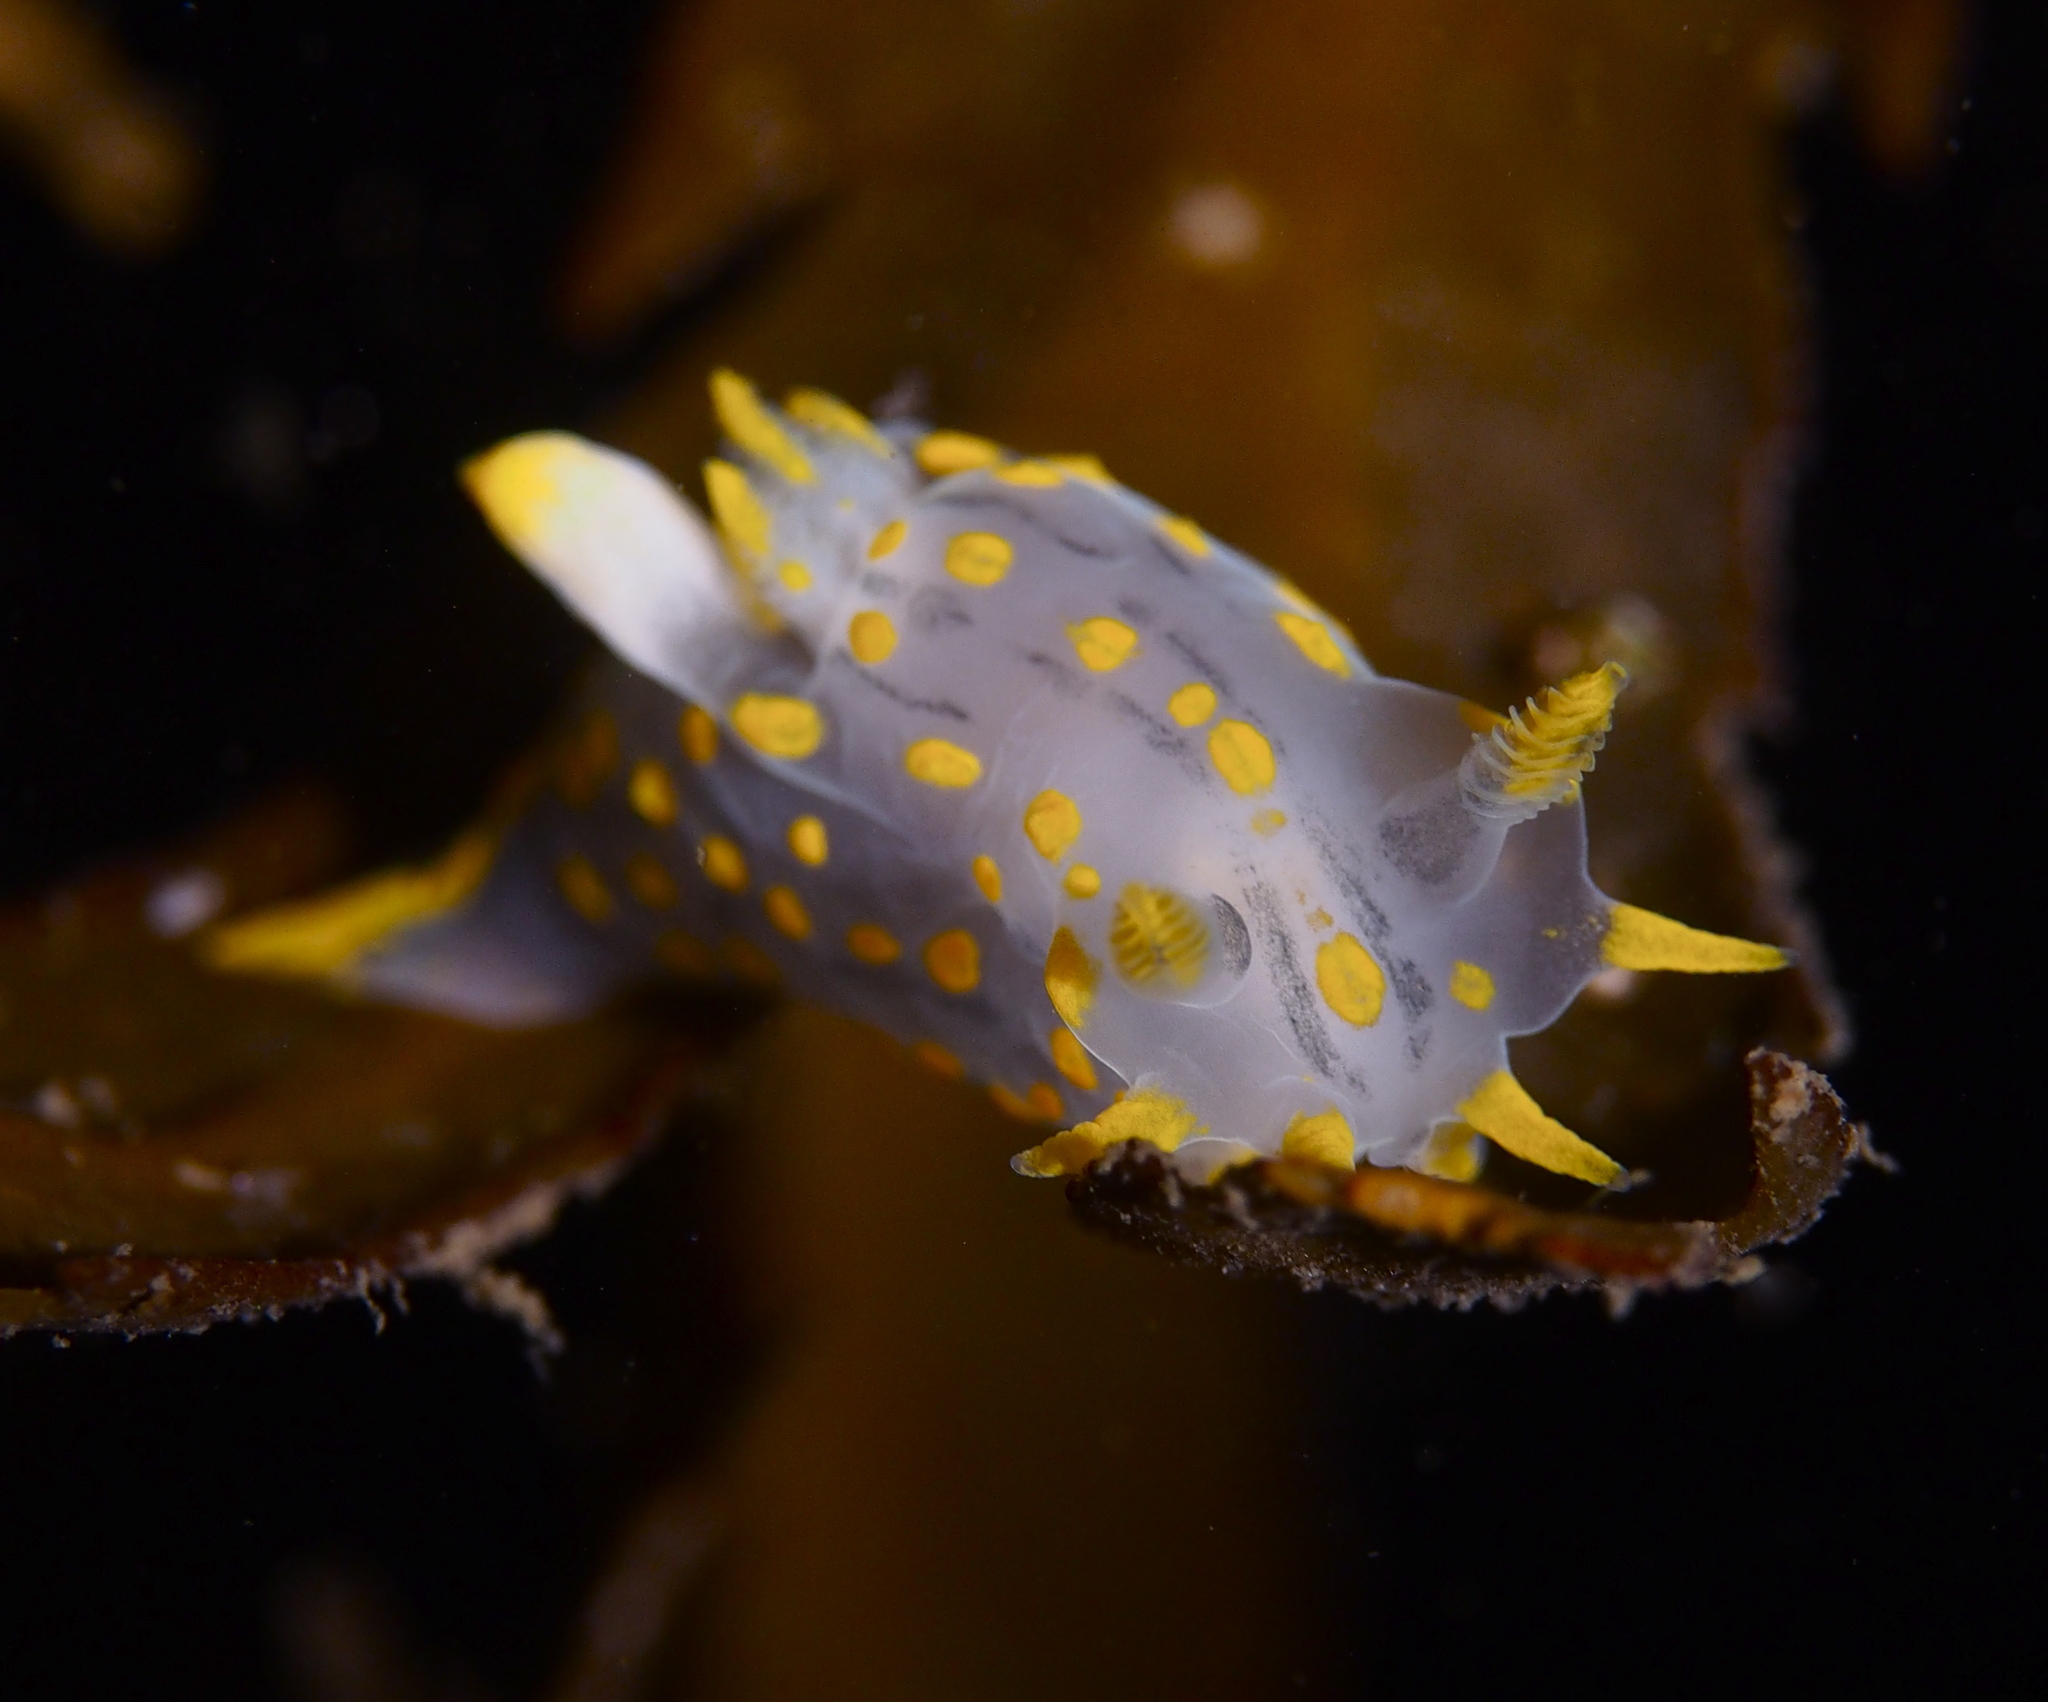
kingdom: Animalia
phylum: Mollusca
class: Gastropoda
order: Nudibranchia
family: Polyceridae
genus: Polycera
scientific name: Polycera quadrilineata
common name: Four-striped polycera
